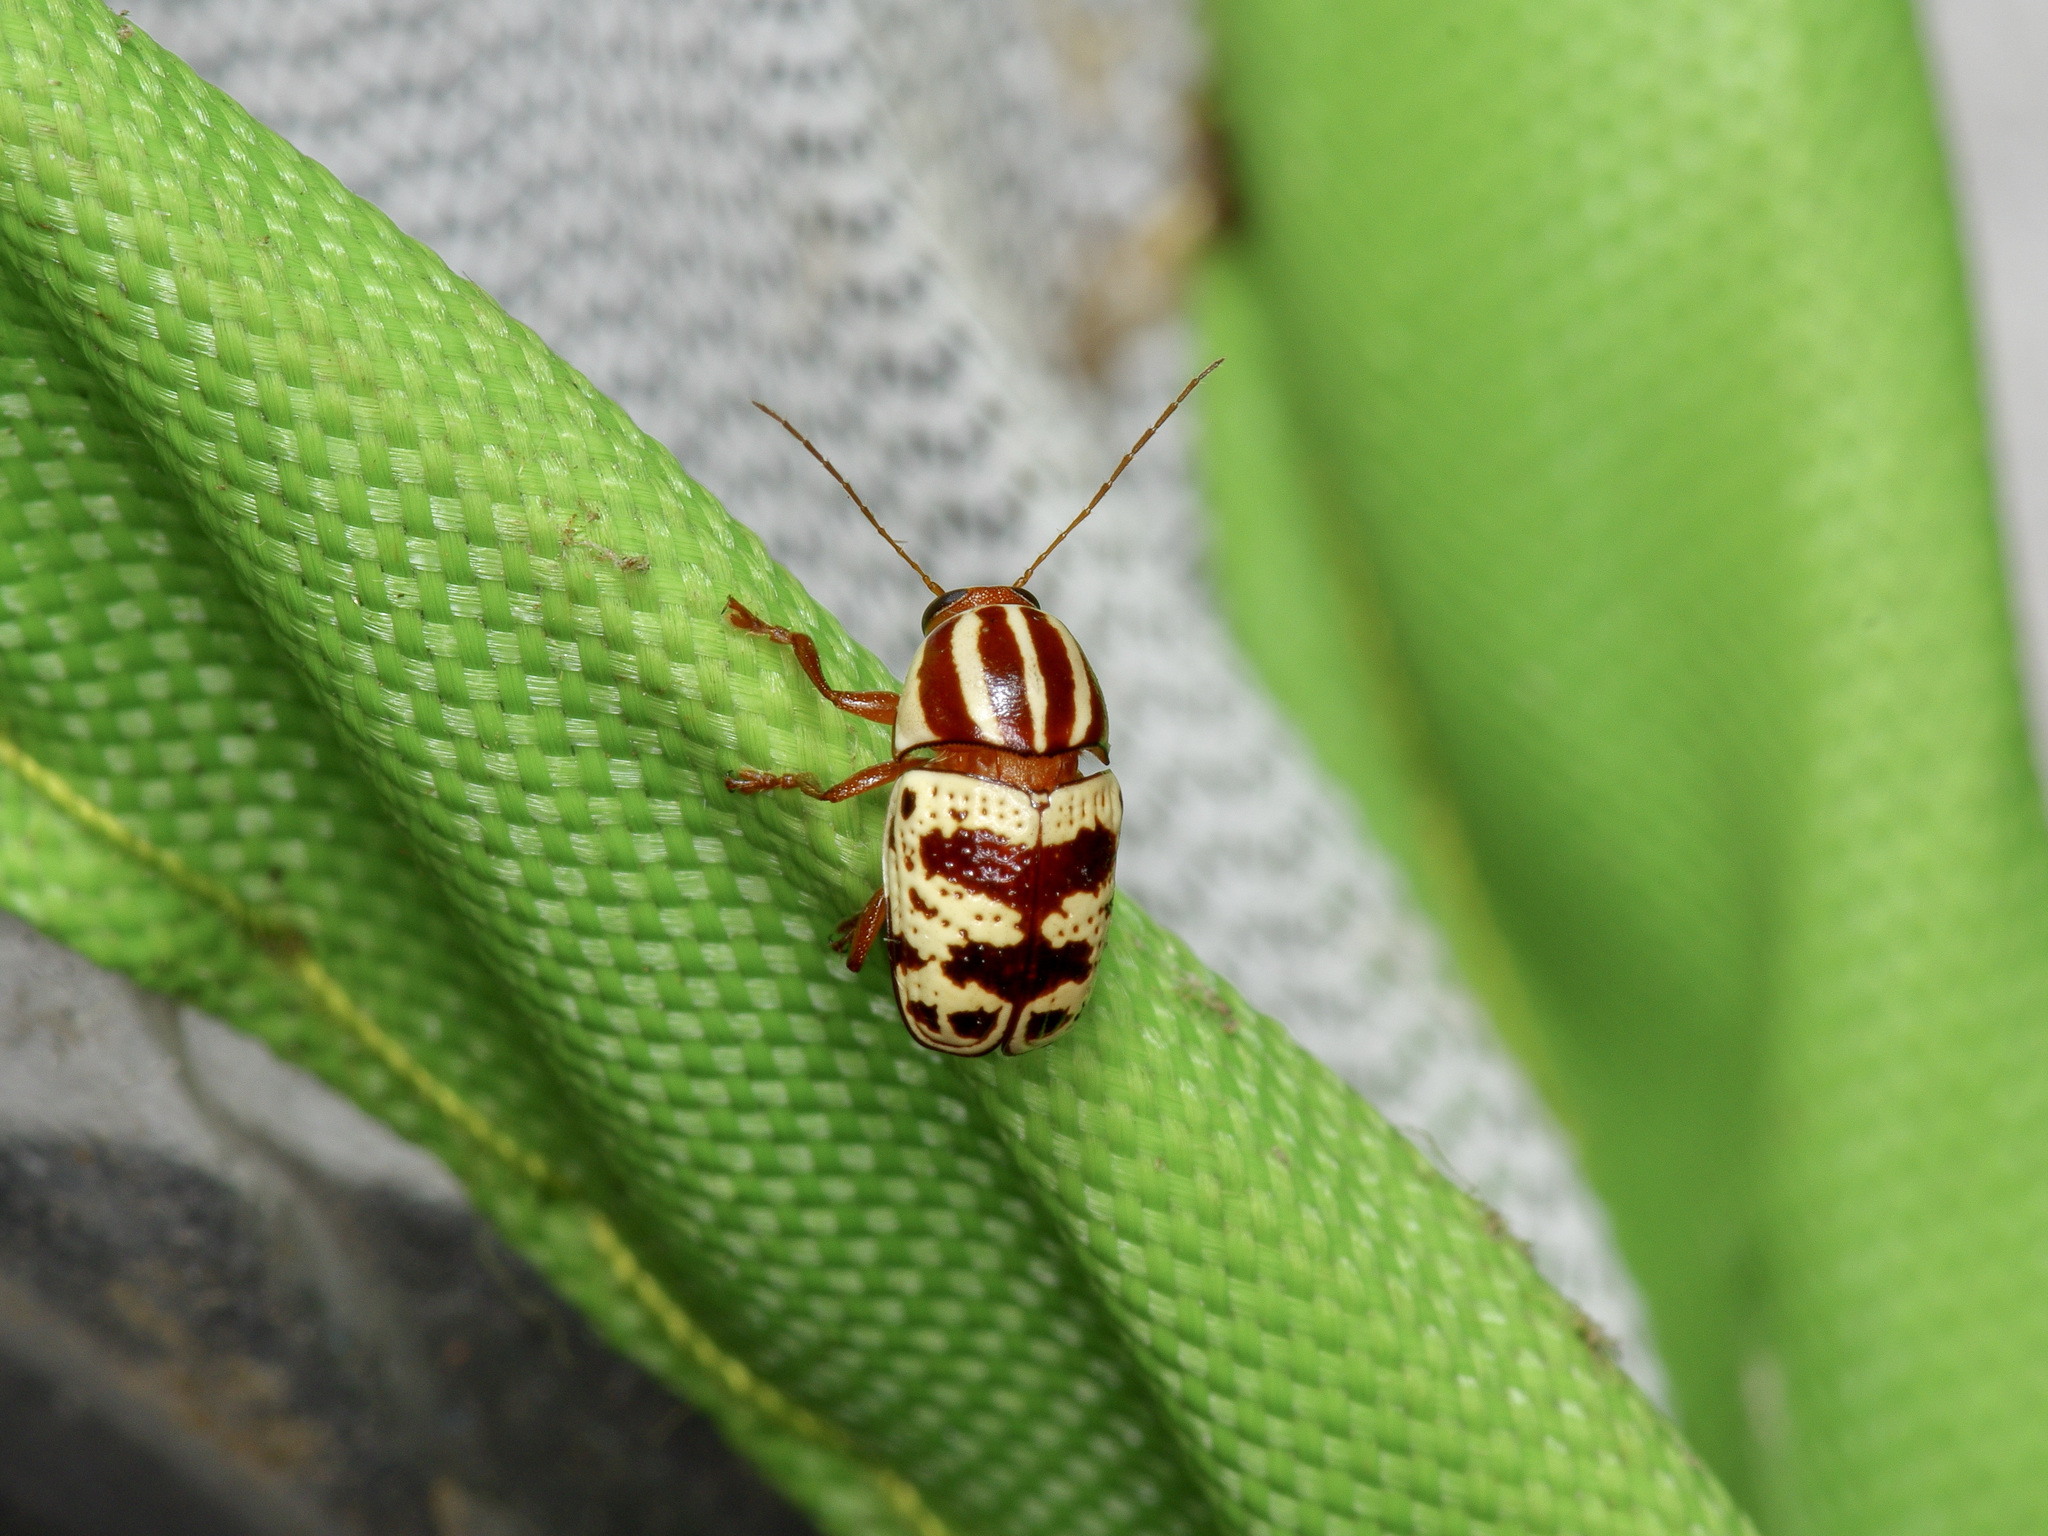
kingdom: Animalia
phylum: Arthropoda
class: Insecta
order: Coleoptera
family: Chrysomelidae
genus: Cryptocephalus
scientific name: Cryptocephalus leucomelas
